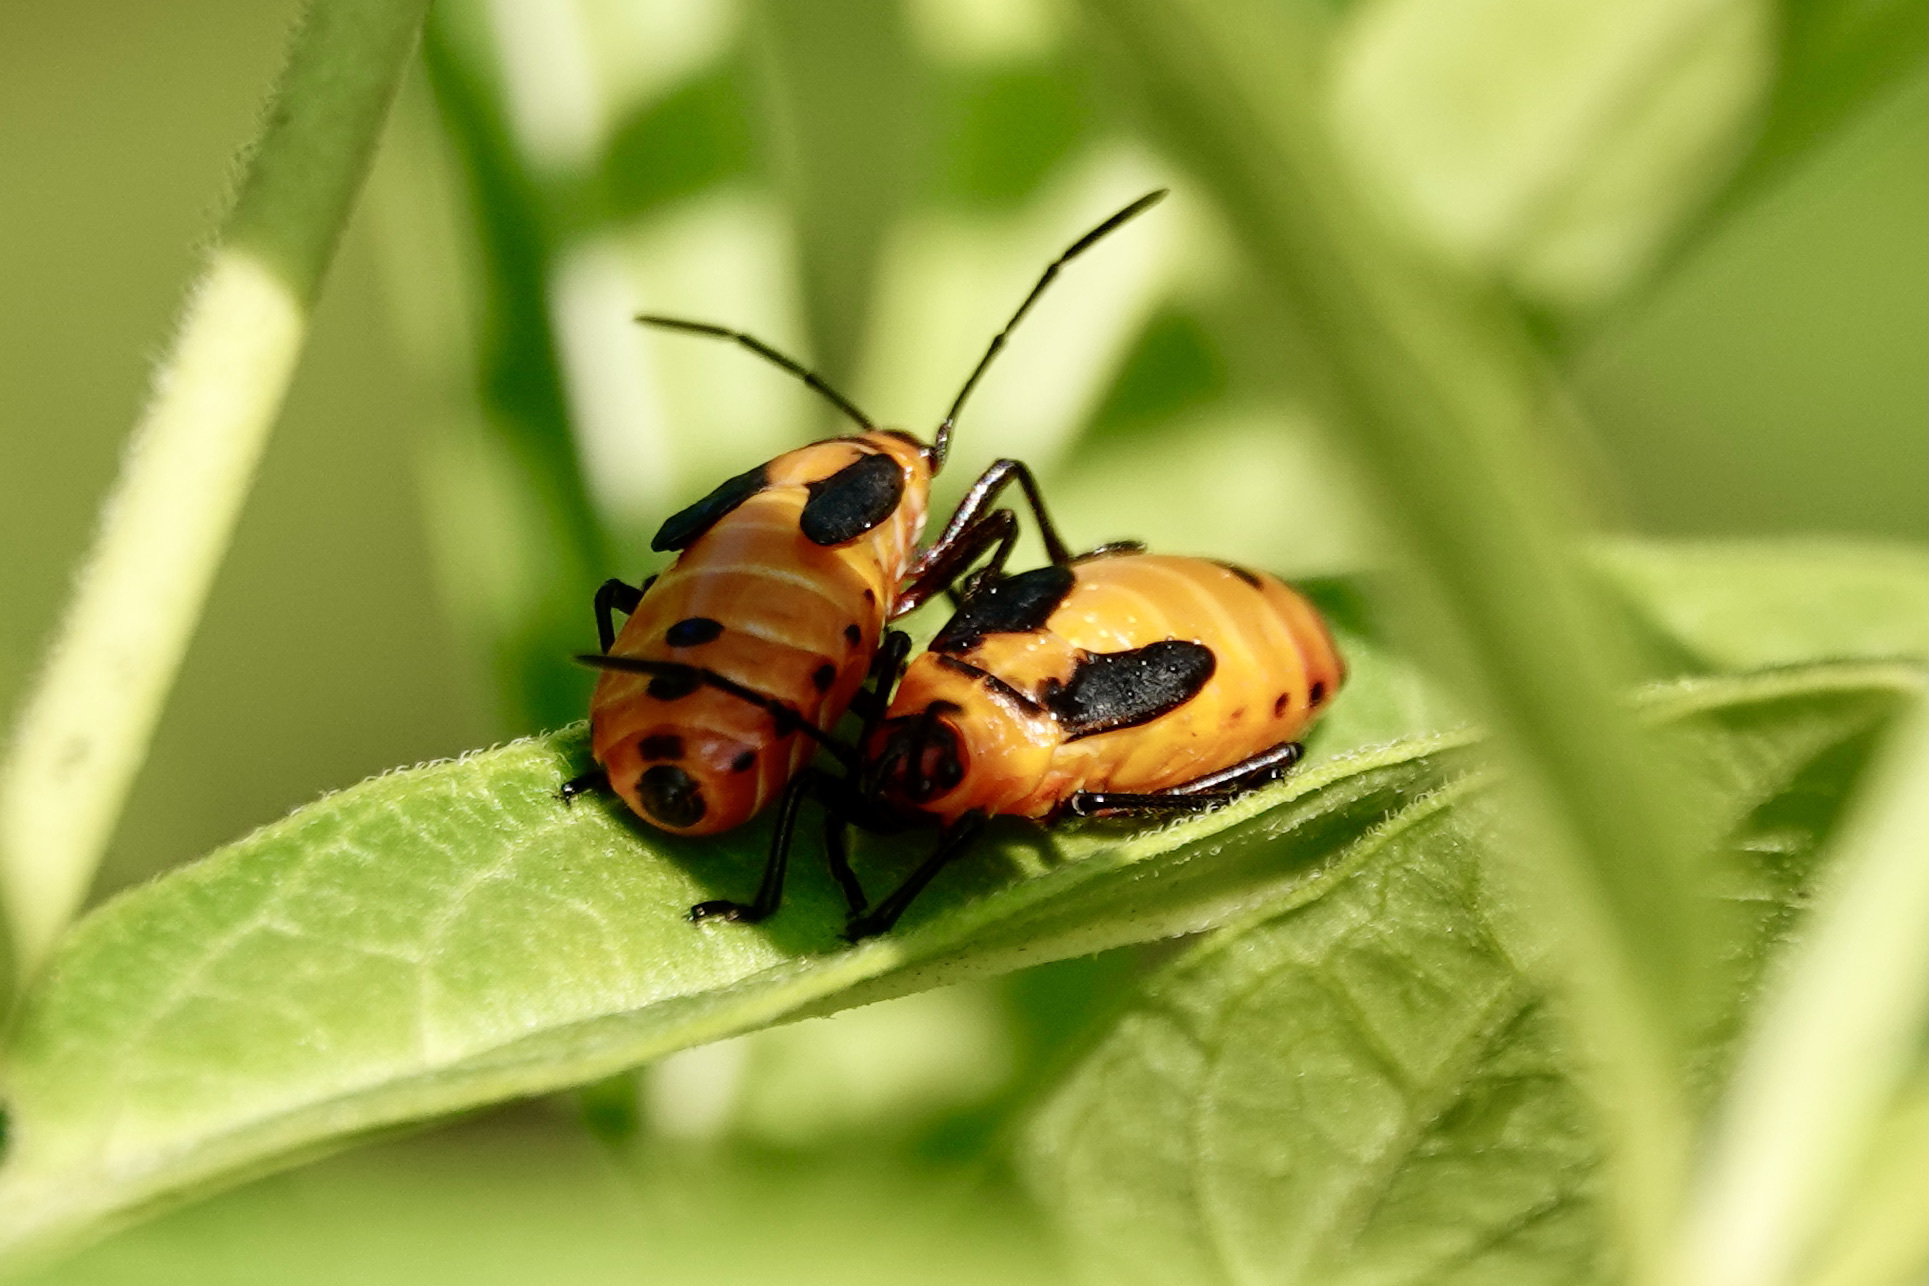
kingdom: Animalia
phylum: Arthropoda
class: Insecta
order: Hemiptera
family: Lygaeidae
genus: Oncopeltus
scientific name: Oncopeltus fasciatus
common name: Large milkweed bug
